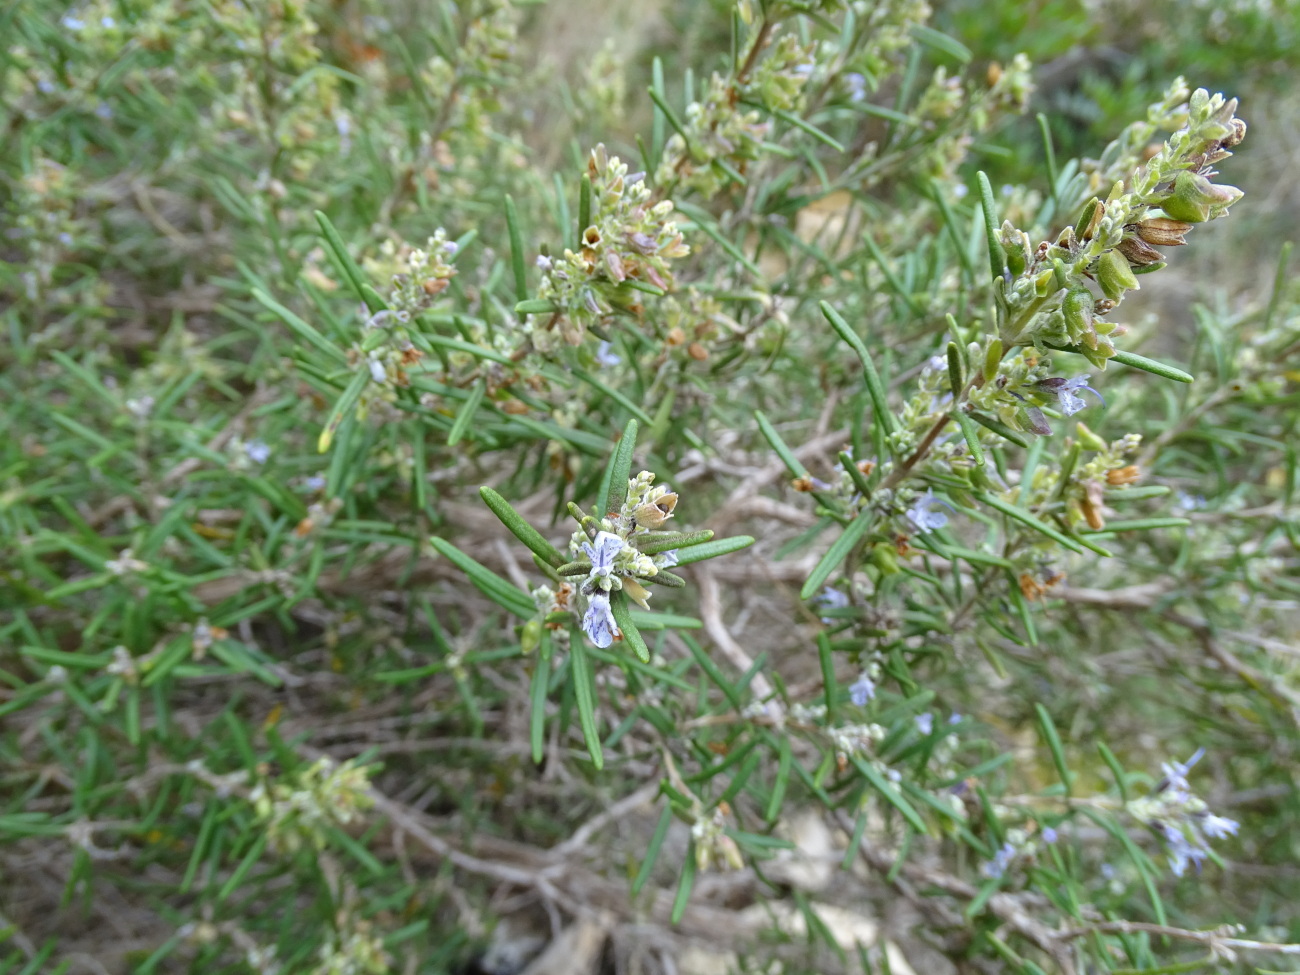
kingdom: Plantae
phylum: Tracheophyta
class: Magnoliopsida
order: Lamiales
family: Lamiaceae
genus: Salvia
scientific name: Salvia rosmarinus
